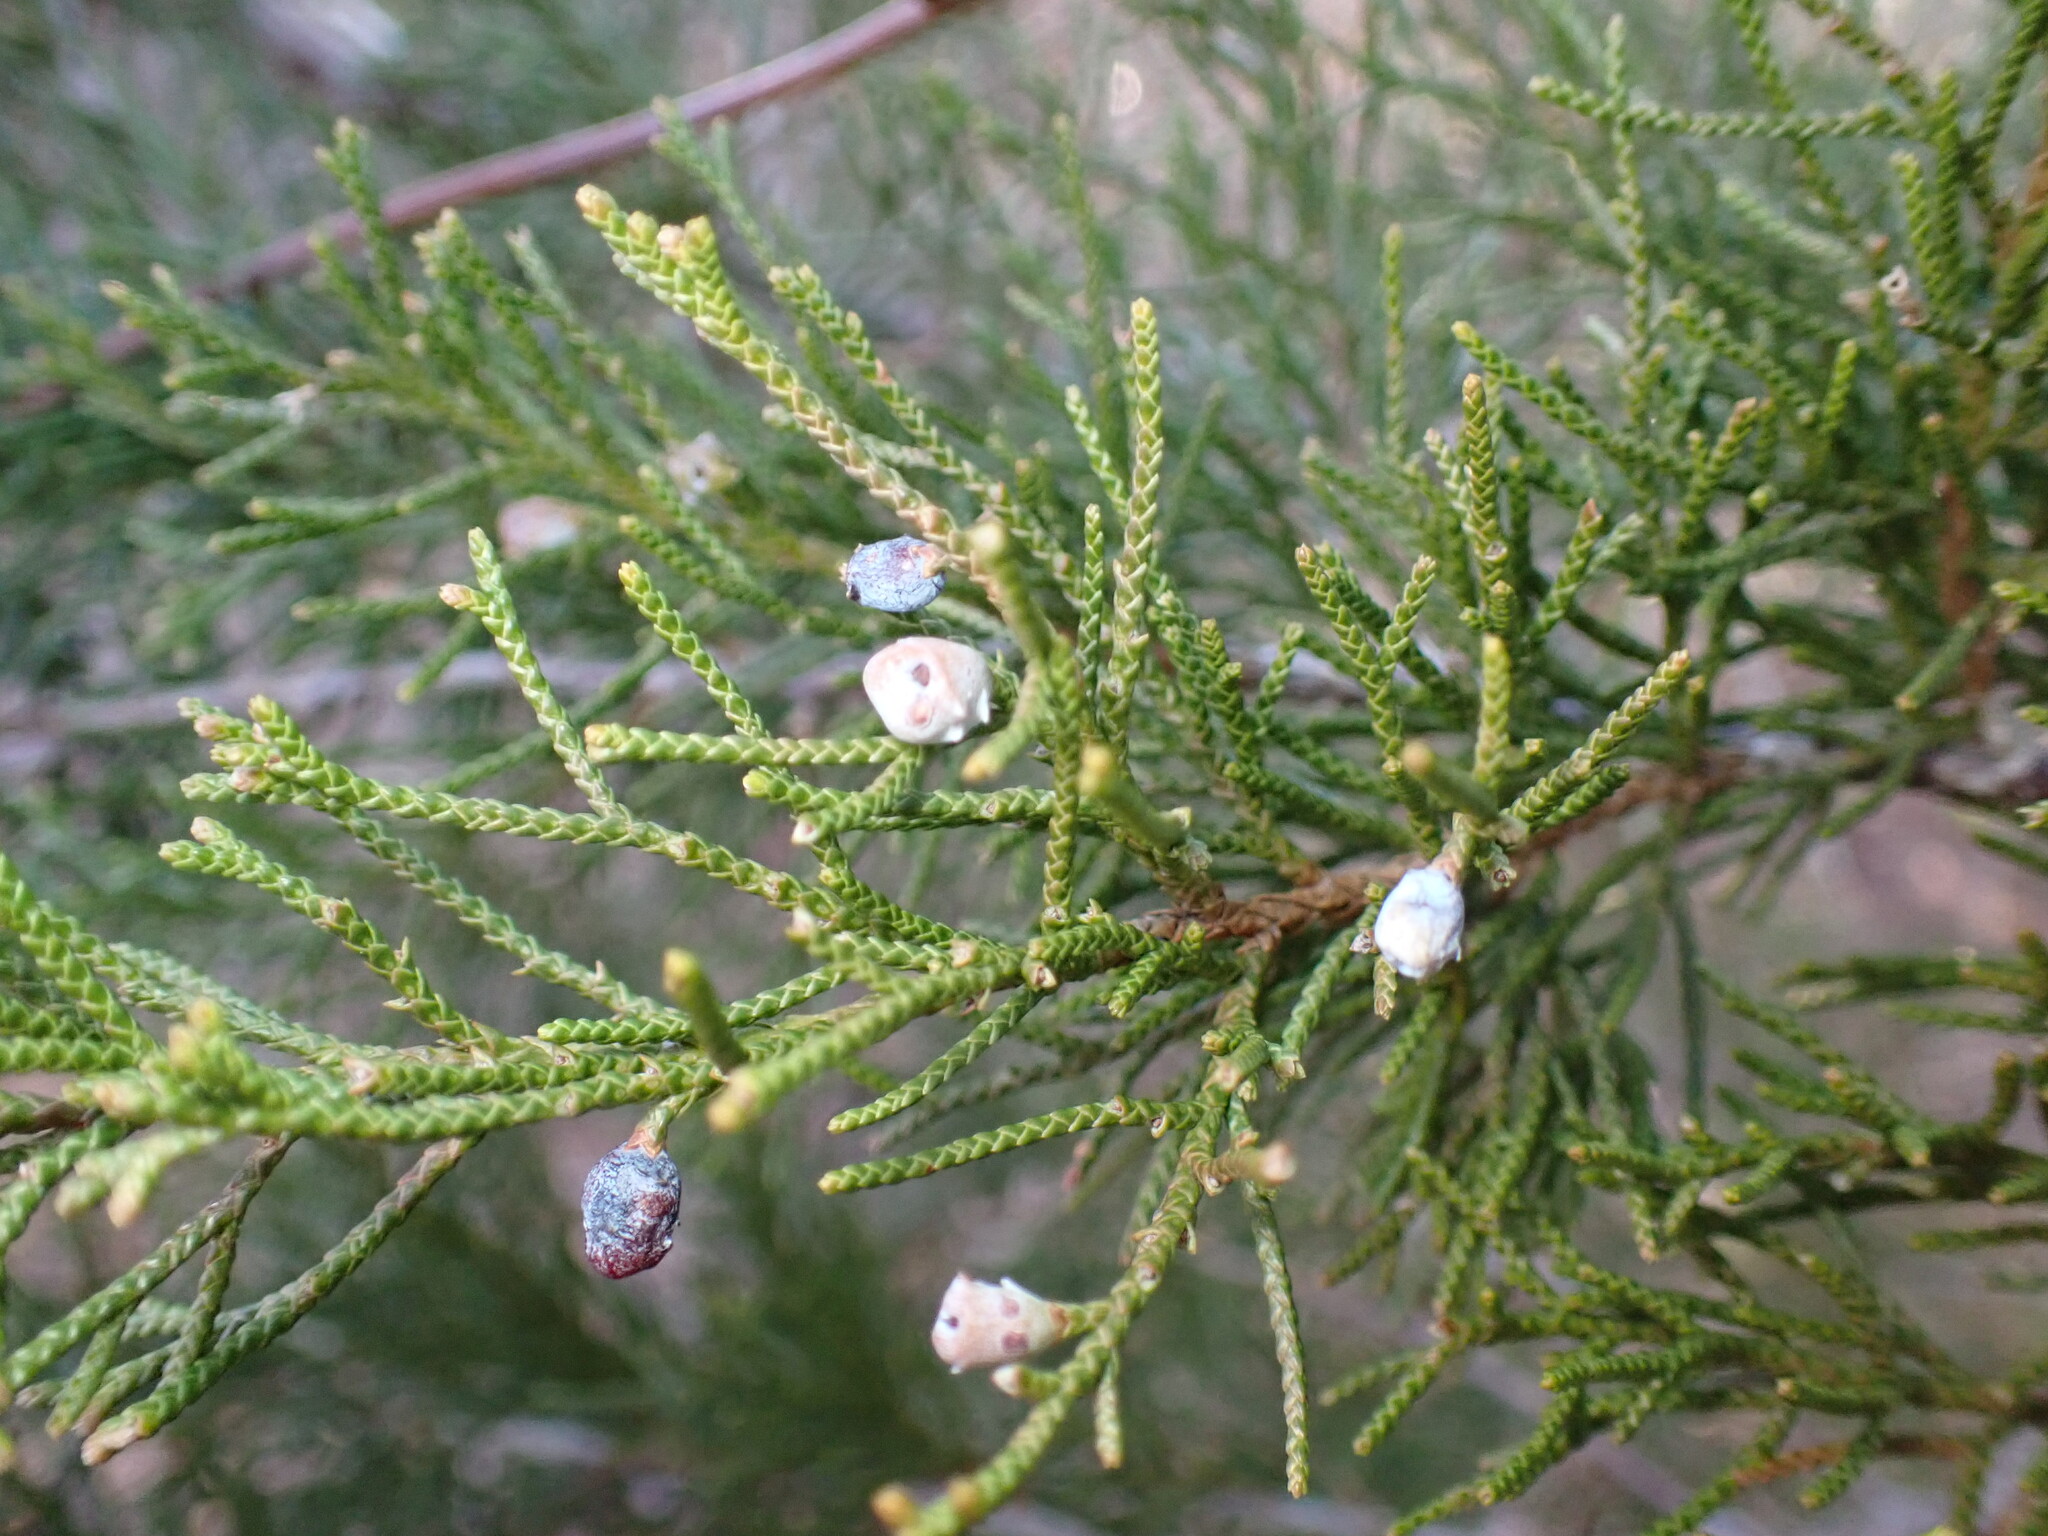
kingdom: Plantae
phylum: Tracheophyta
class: Pinopsida
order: Pinales
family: Cupressaceae
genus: Juniperus
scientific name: Juniperus virginiana
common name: Red juniper
